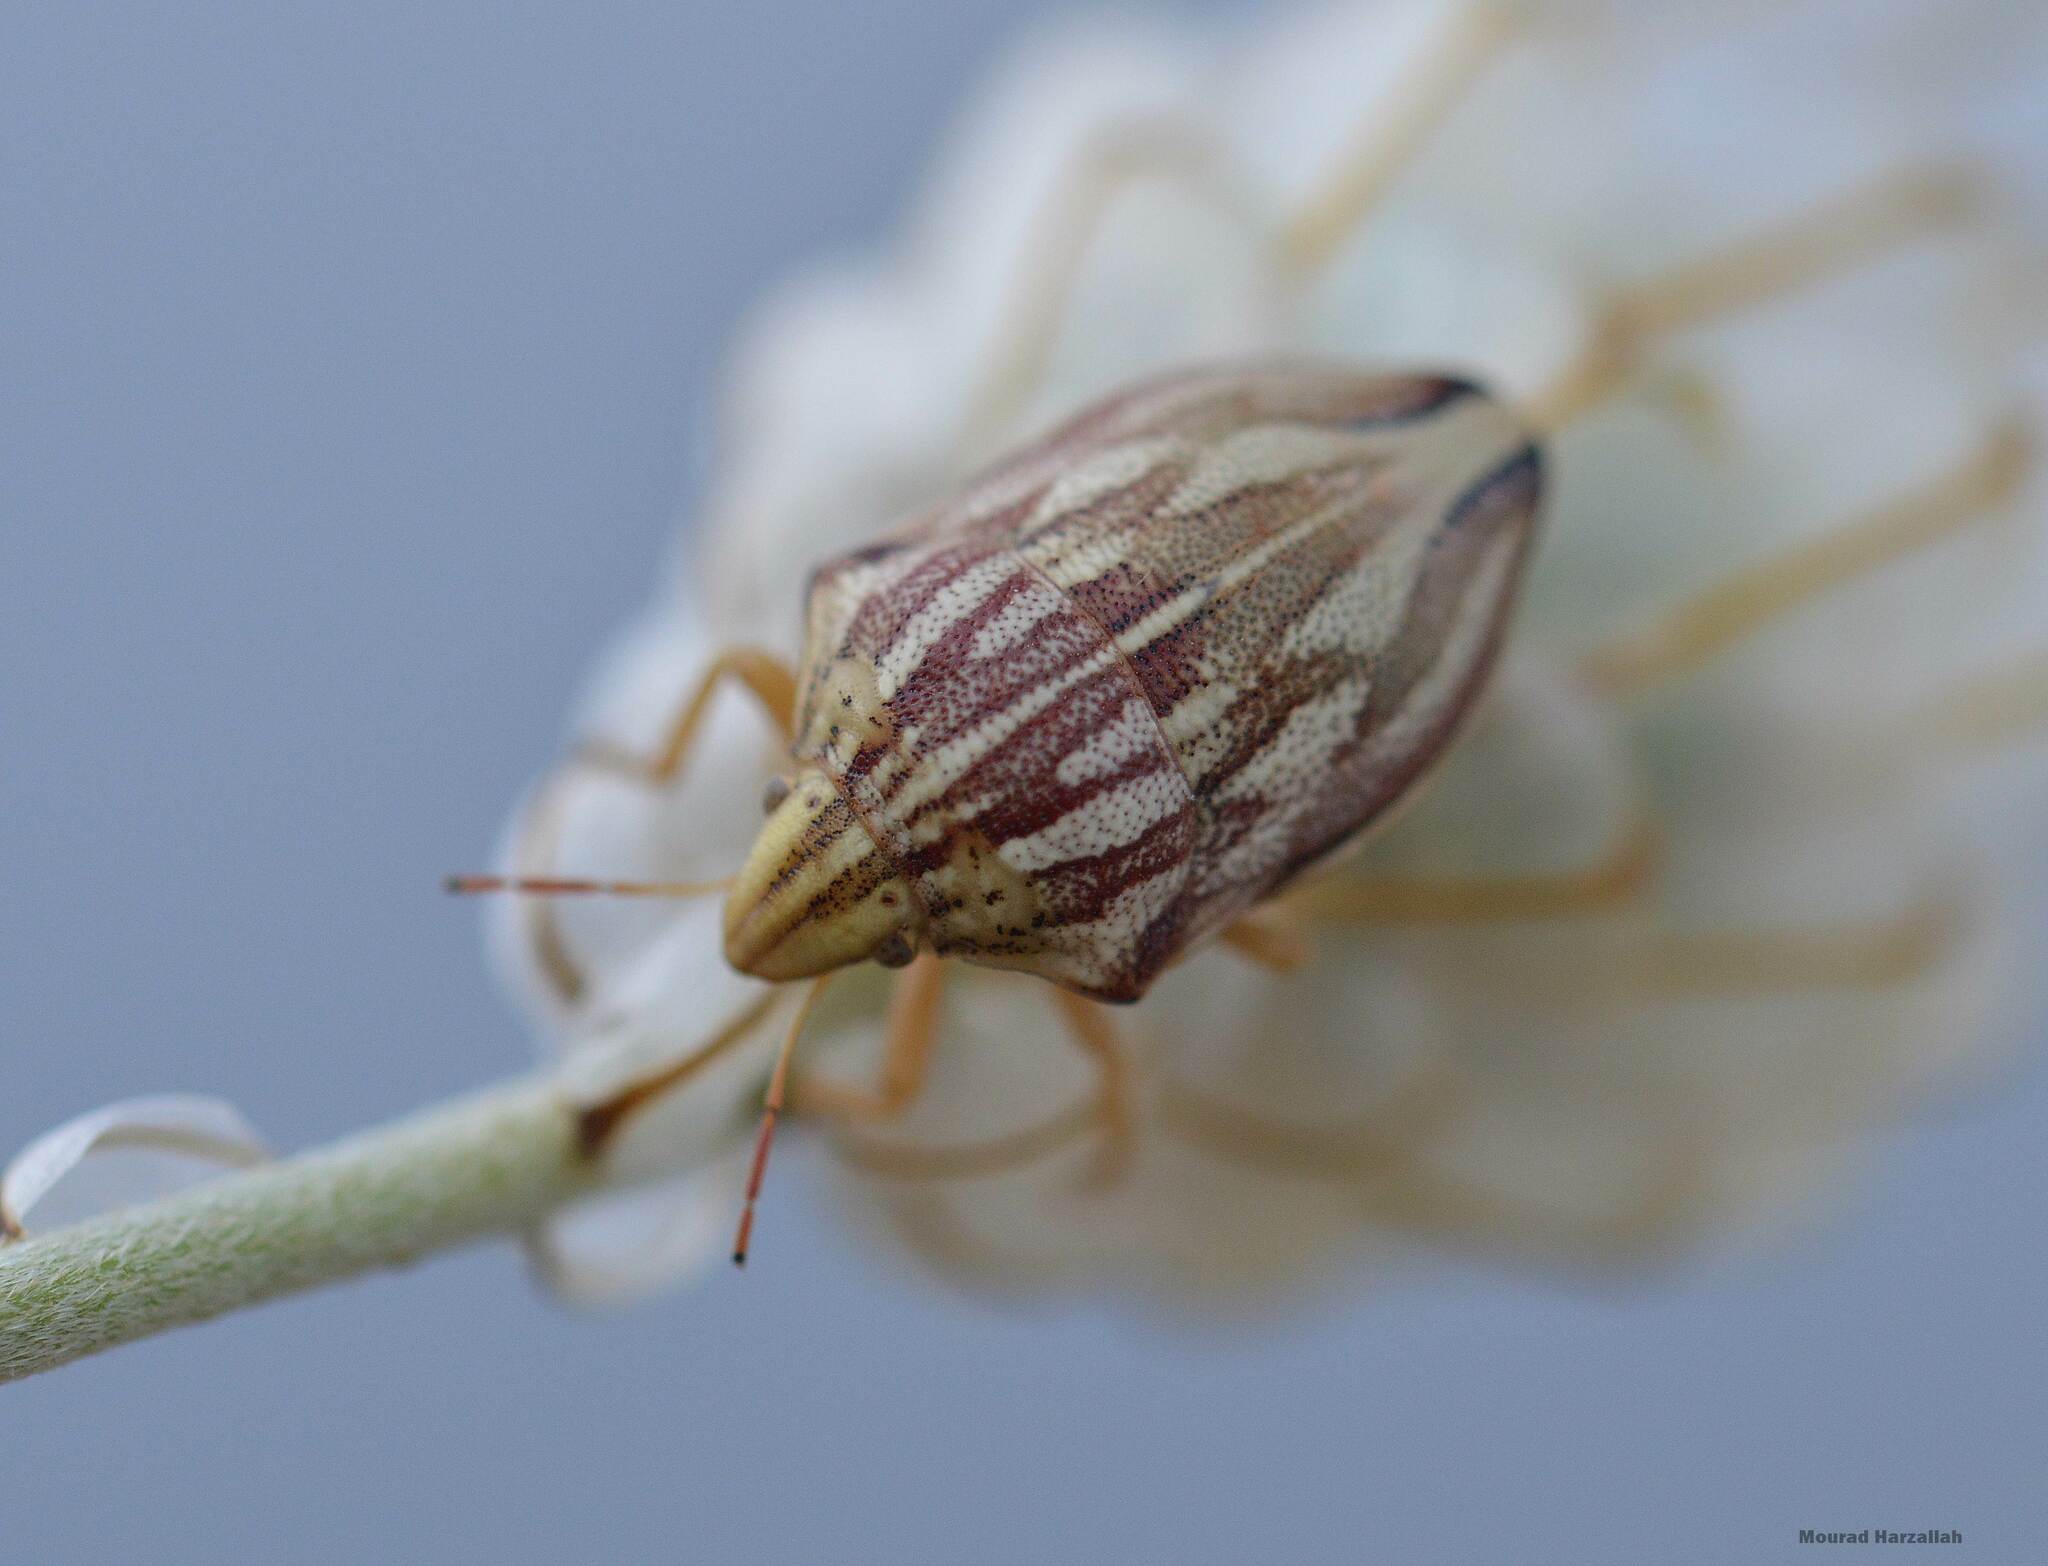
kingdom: Animalia
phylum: Arthropoda
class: Insecta
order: Hemiptera
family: Scutelleridae
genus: Odontotarsus
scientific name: Odontotarsus grammicus
